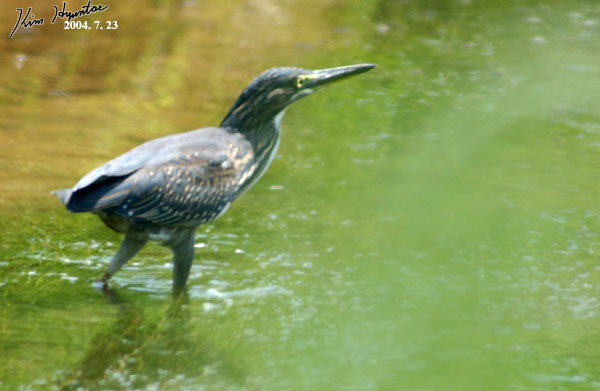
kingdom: Animalia
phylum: Chordata
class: Aves
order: Pelecaniformes
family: Ardeidae
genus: Butorides
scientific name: Butorides striata
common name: Striated heron
